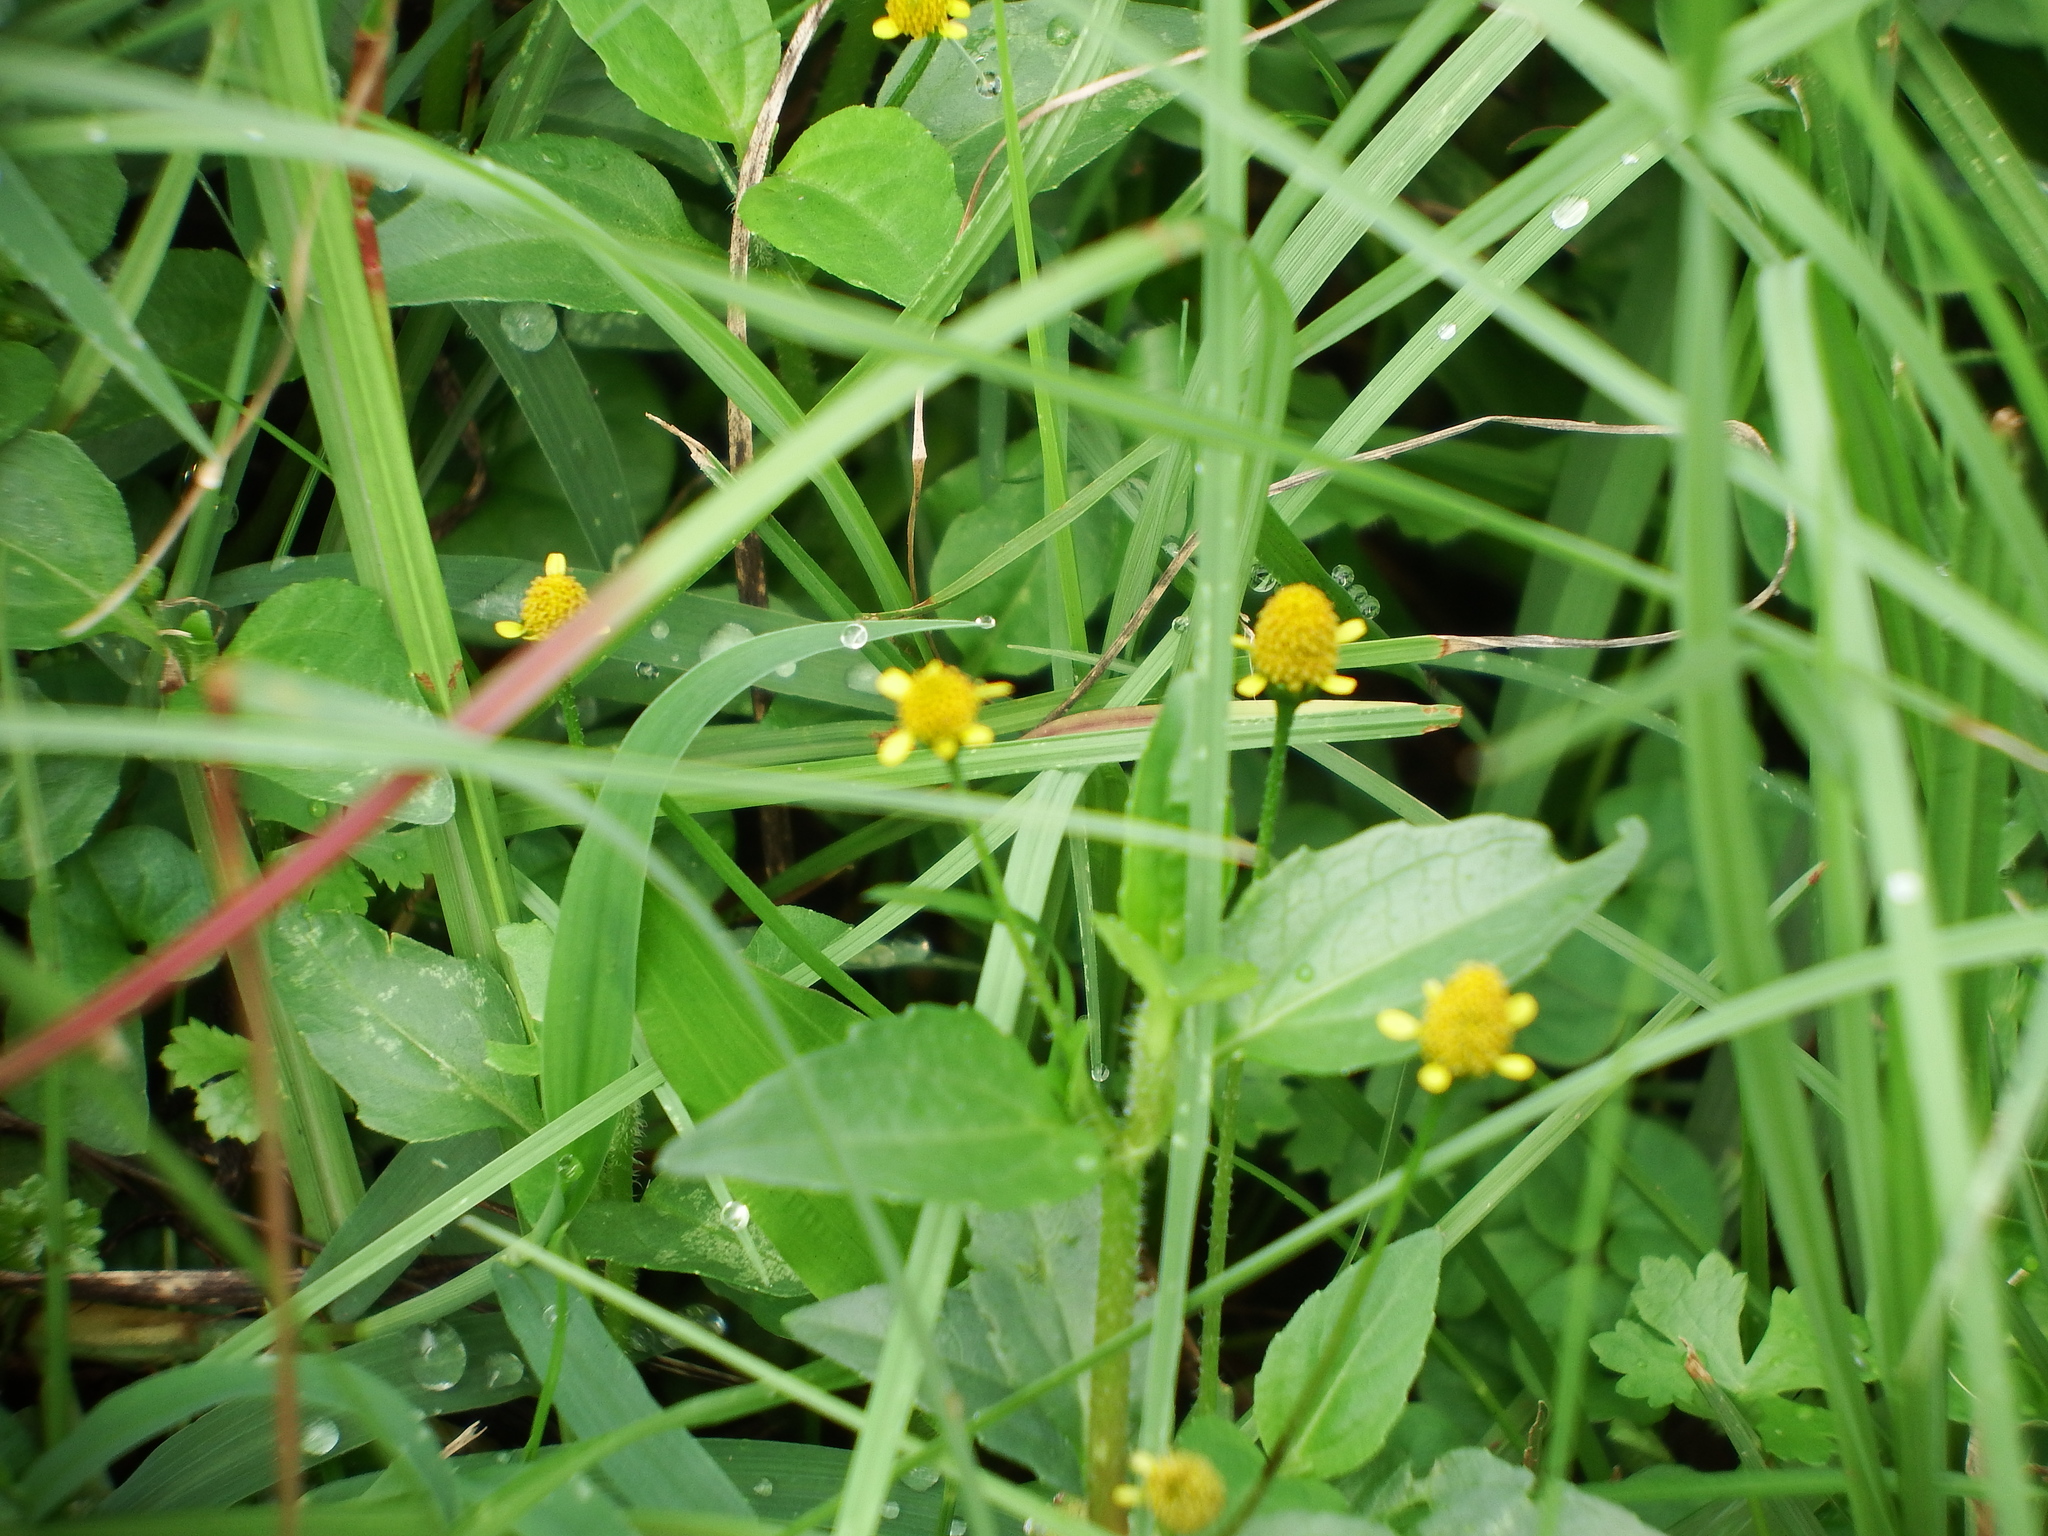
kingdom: Plantae
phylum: Tracheophyta
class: Magnoliopsida
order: Asterales
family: Asteraceae
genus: Acmella
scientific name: Acmella uliginosa
